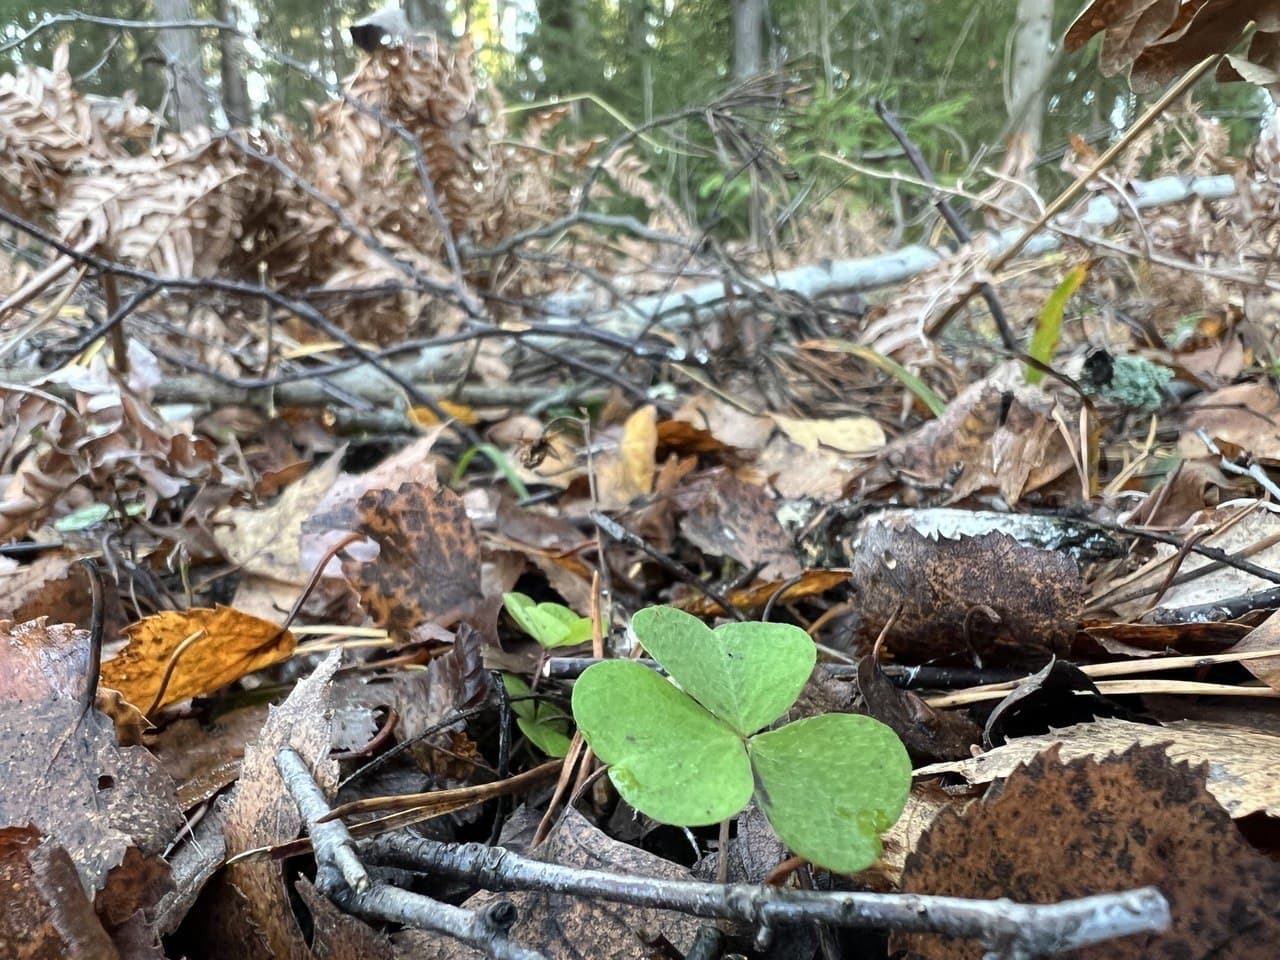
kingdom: Plantae
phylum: Tracheophyta
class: Magnoliopsida
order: Oxalidales
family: Oxalidaceae
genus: Oxalis
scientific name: Oxalis acetosella
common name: Wood-sorrel
